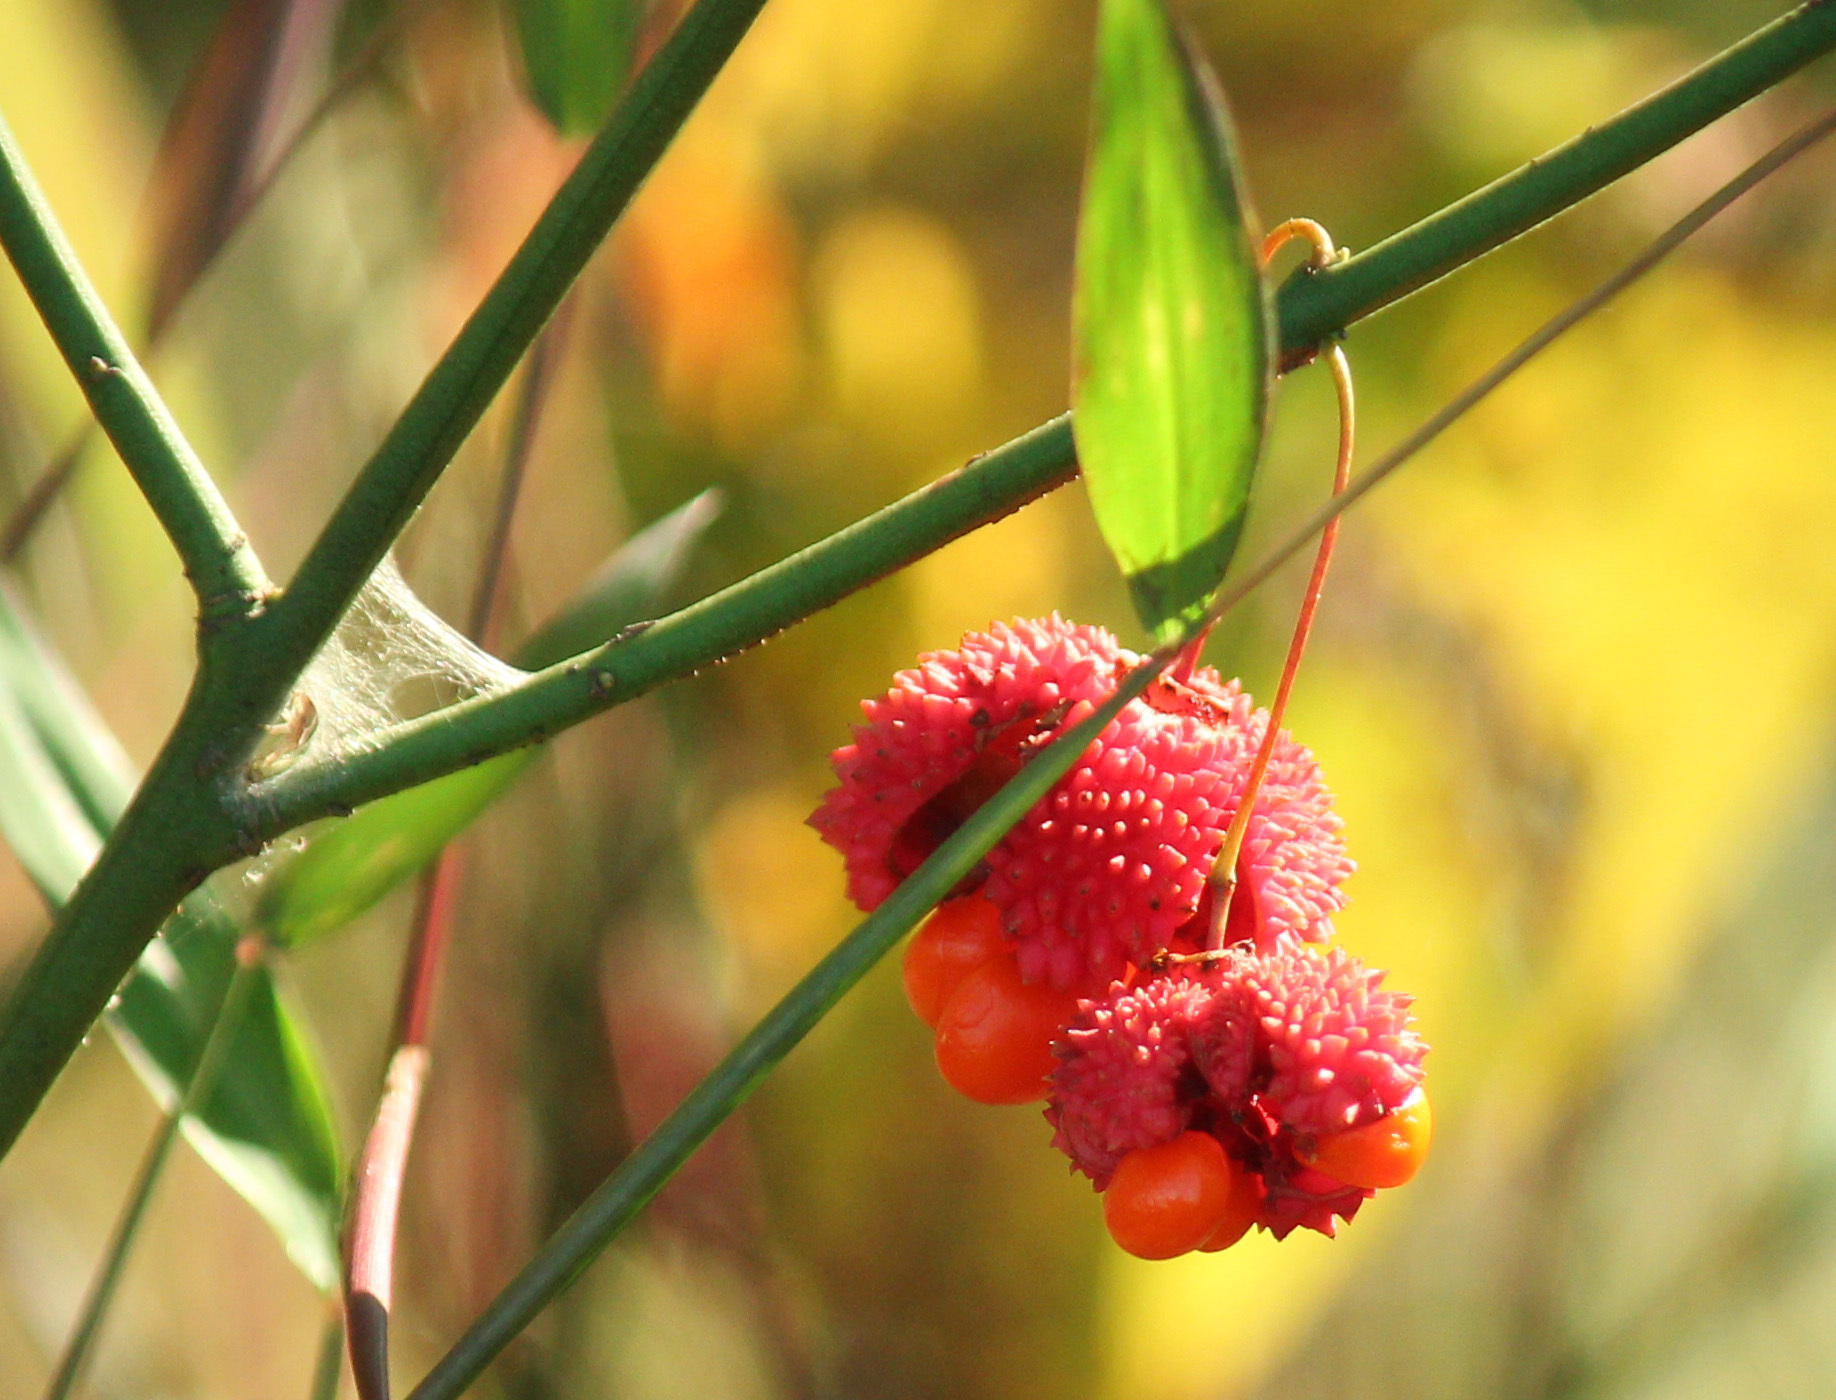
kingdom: Plantae
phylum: Tracheophyta
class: Magnoliopsida
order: Celastrales
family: Celastraceae
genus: Euonymus
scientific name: Euonymus americanus
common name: Bursting-heart
